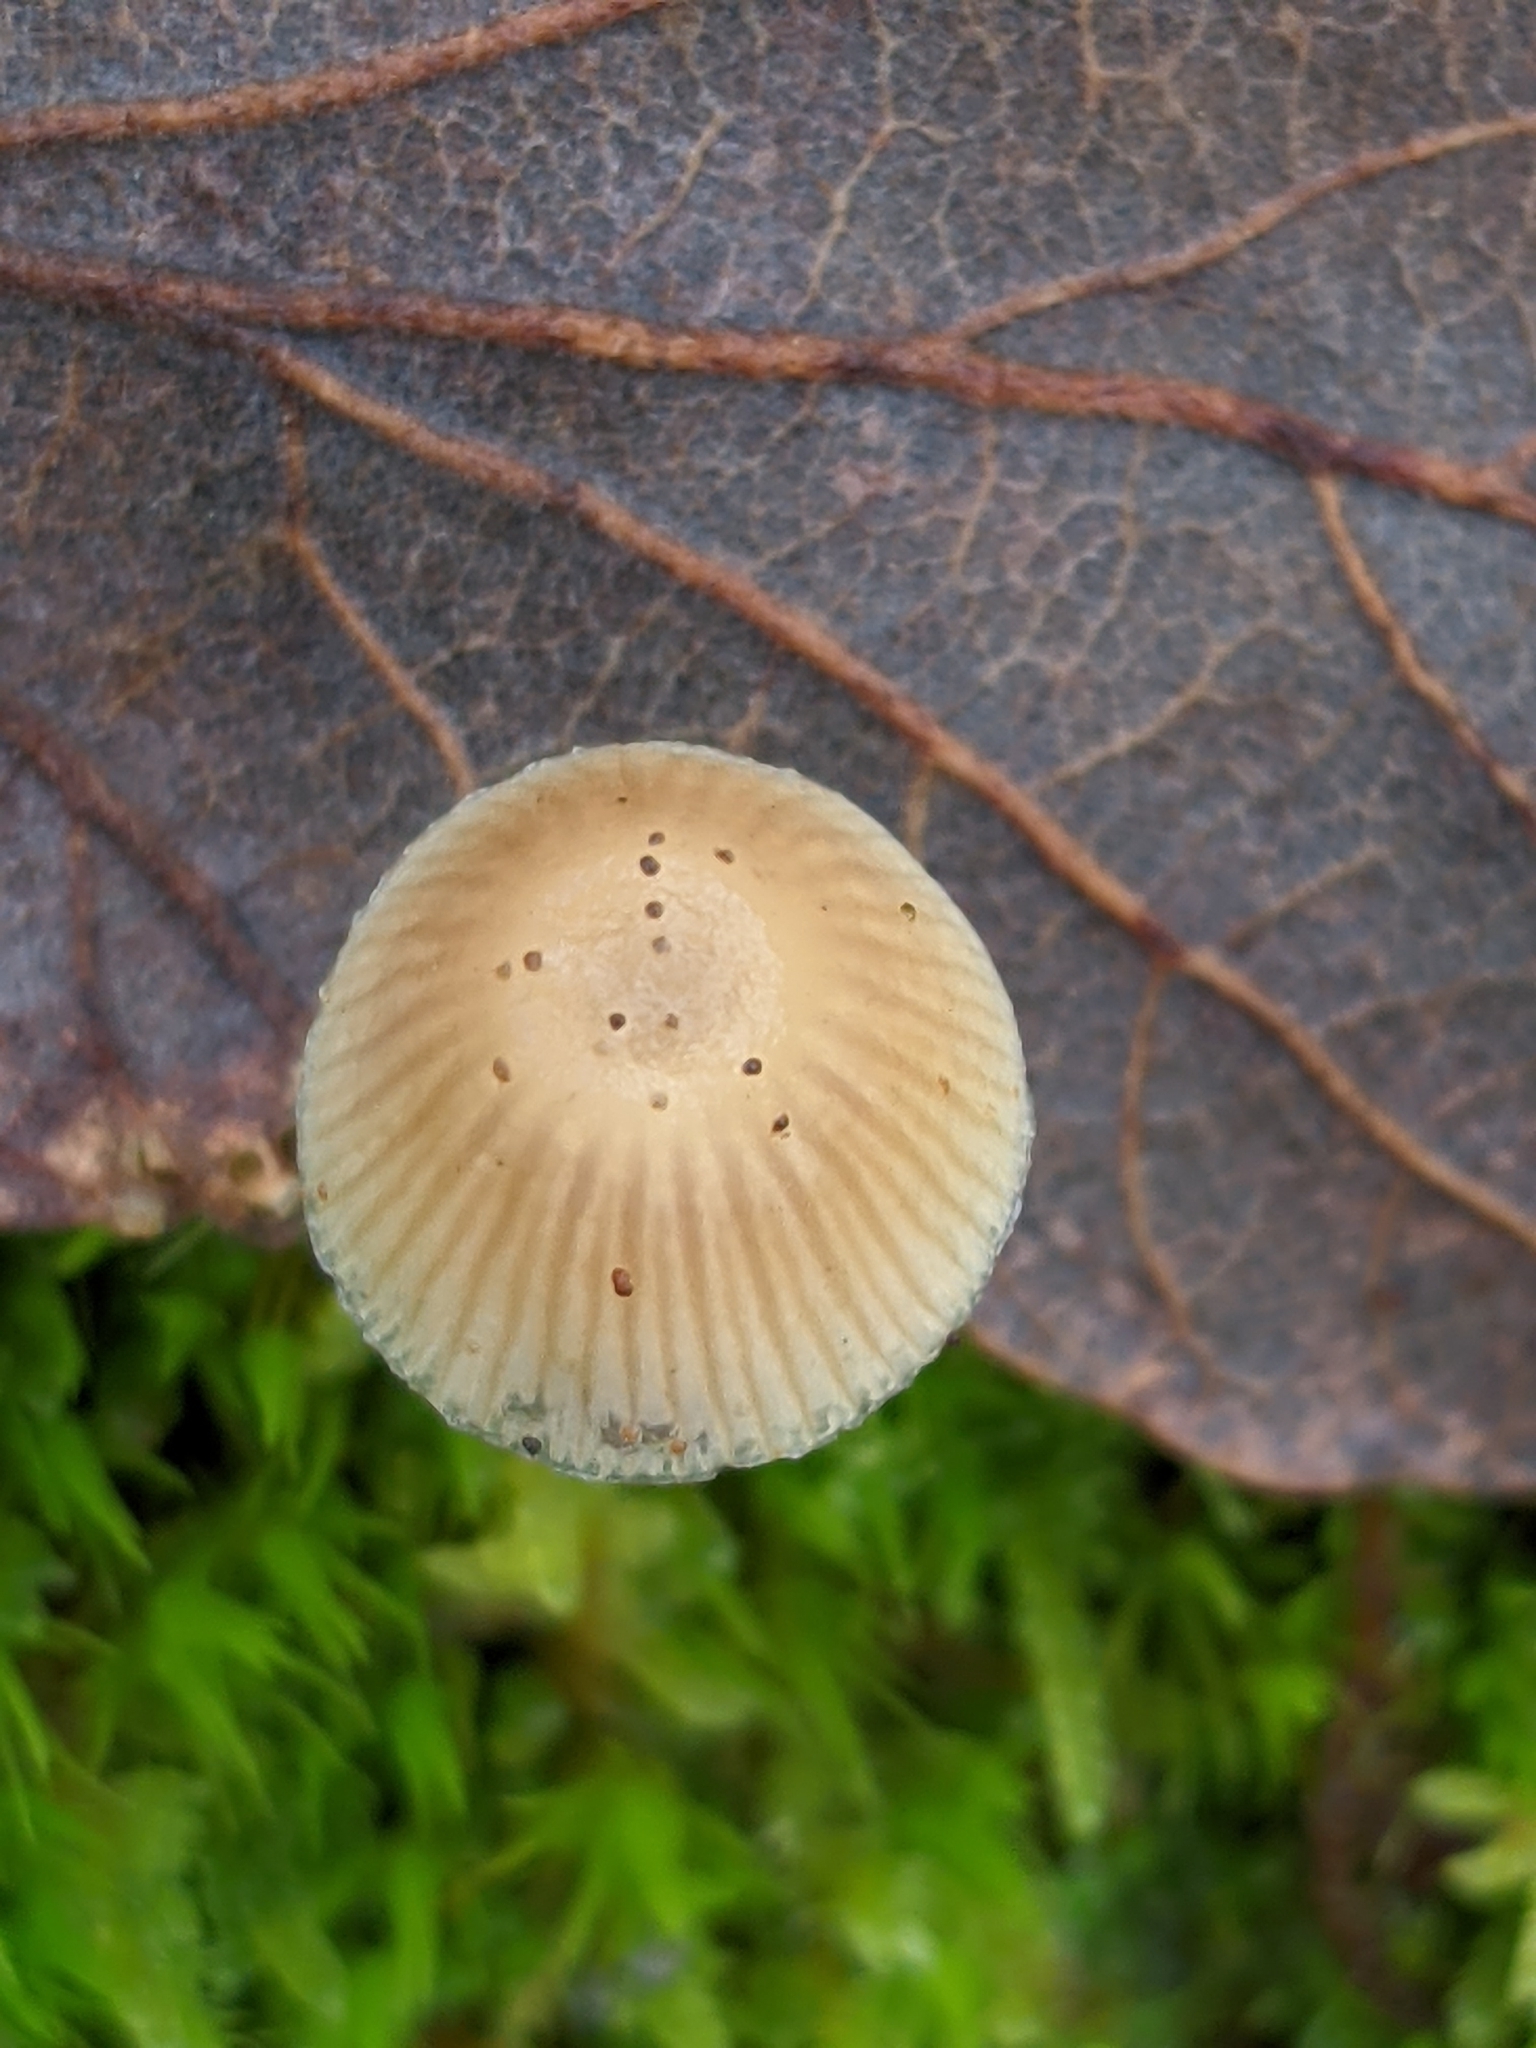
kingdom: Fungi
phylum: Basidiomycota
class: Agaricomycetes
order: Agaricales
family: Mycenaceae
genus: Mycena
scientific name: Mycena epipterygia
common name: Yellowleg bonnet
